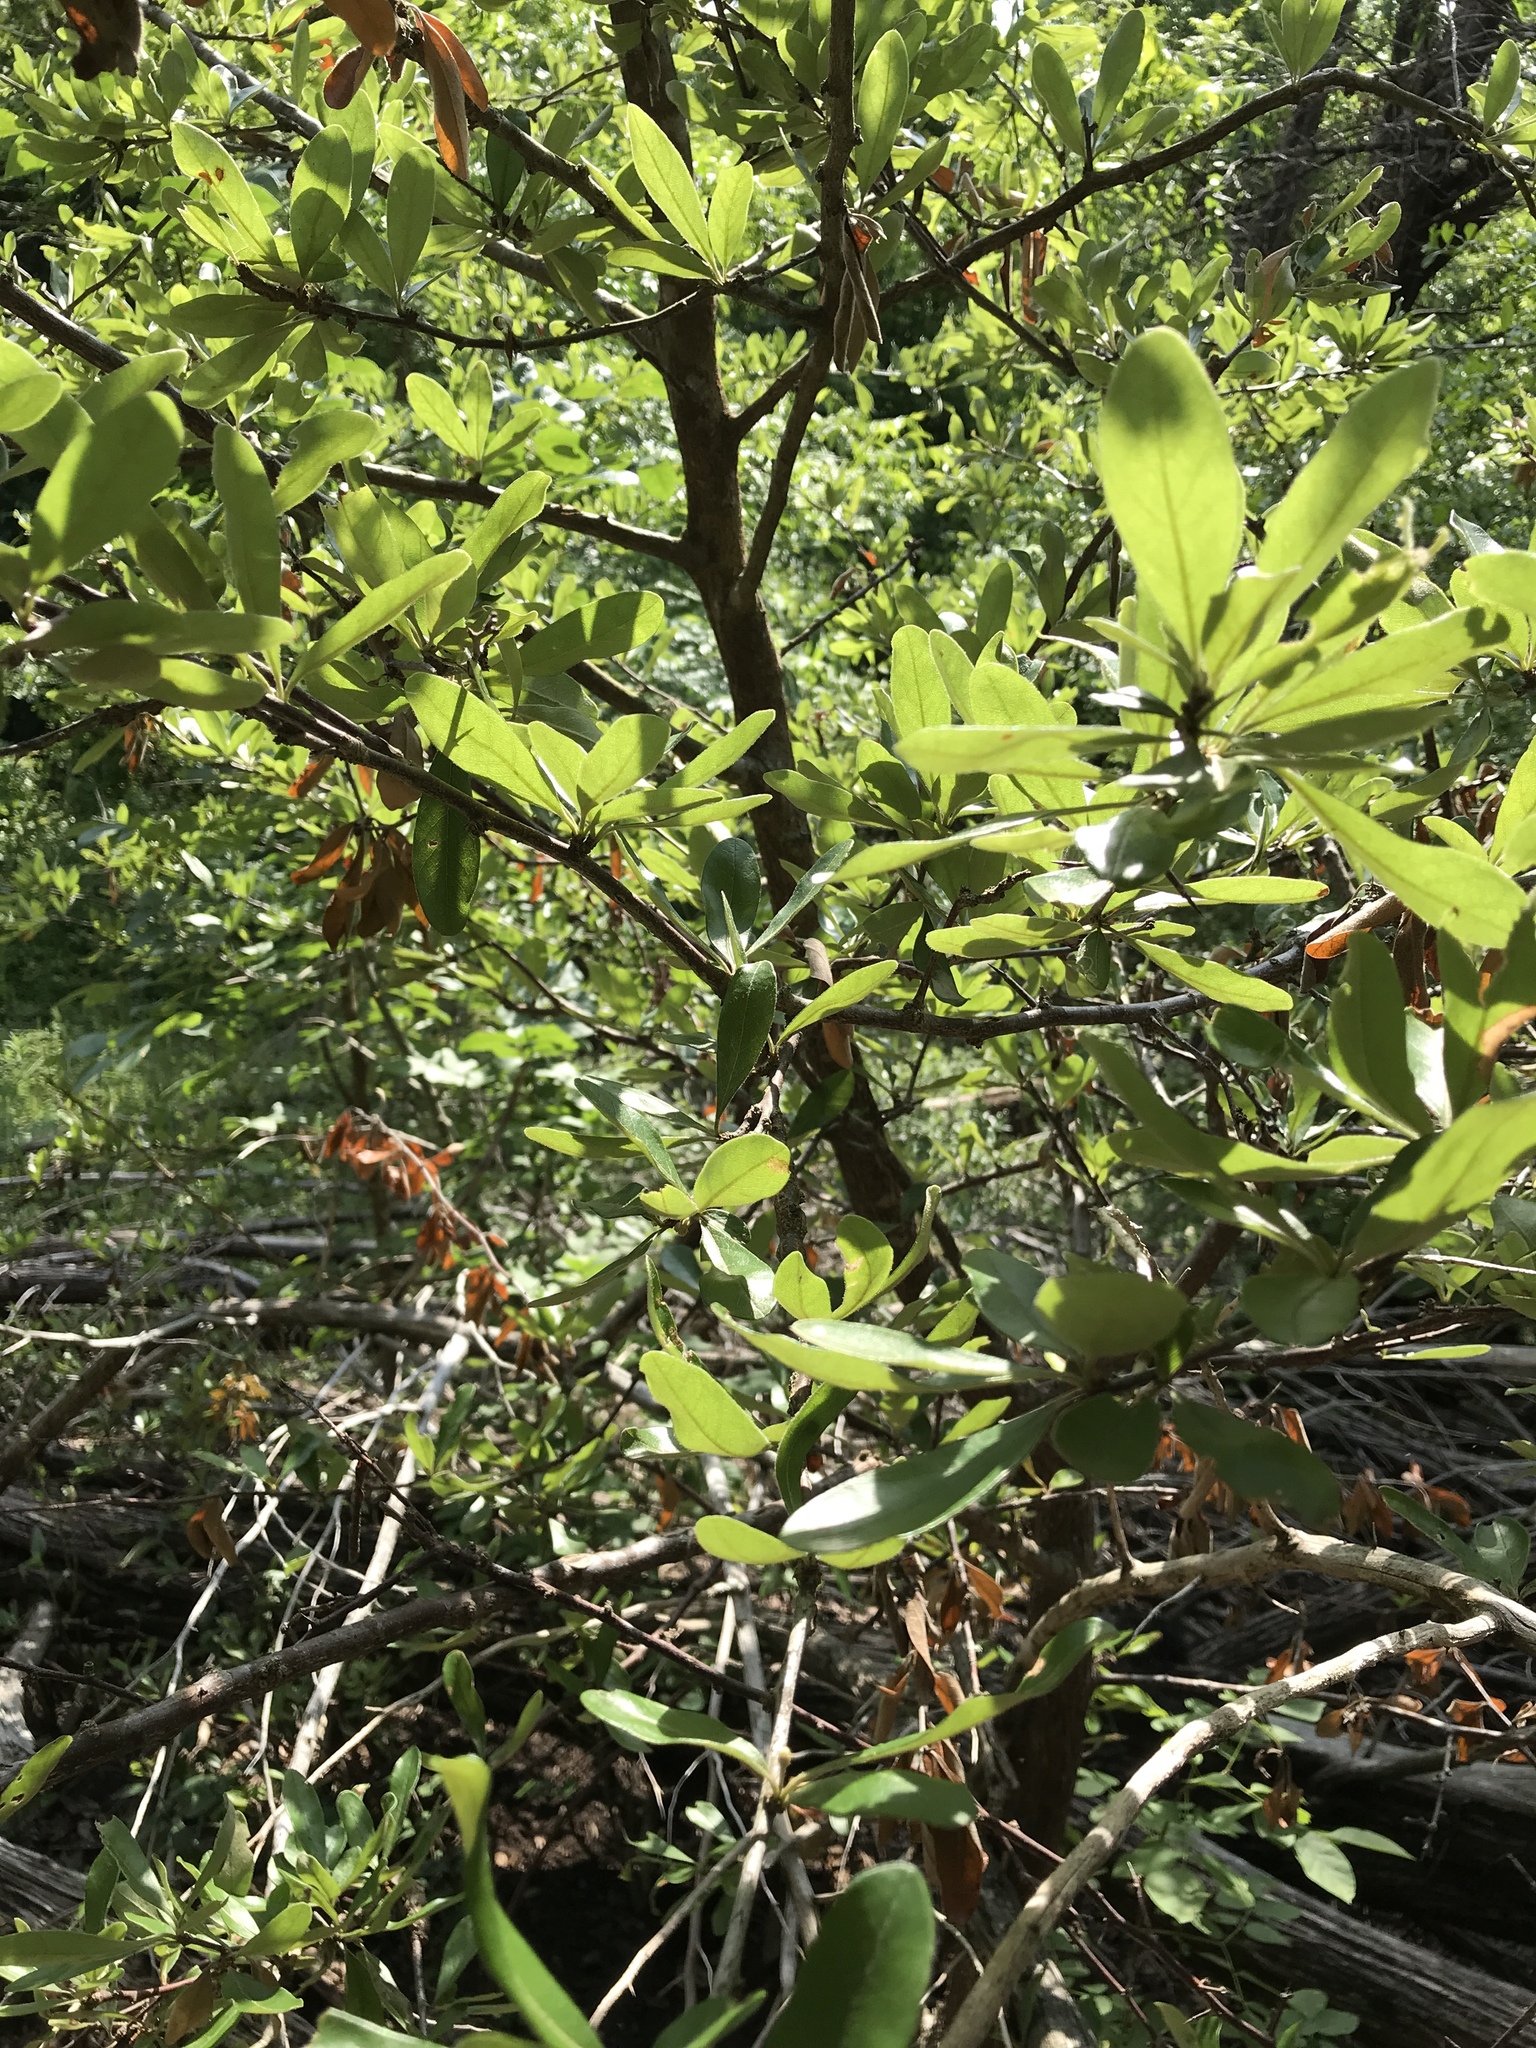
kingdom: Plantae
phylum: Tracheophyta
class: Magnoliopsida
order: Ericales
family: Sapotaceae
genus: Sideroxylon
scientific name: Sideroxylon lanuginosum
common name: Chittamwood
